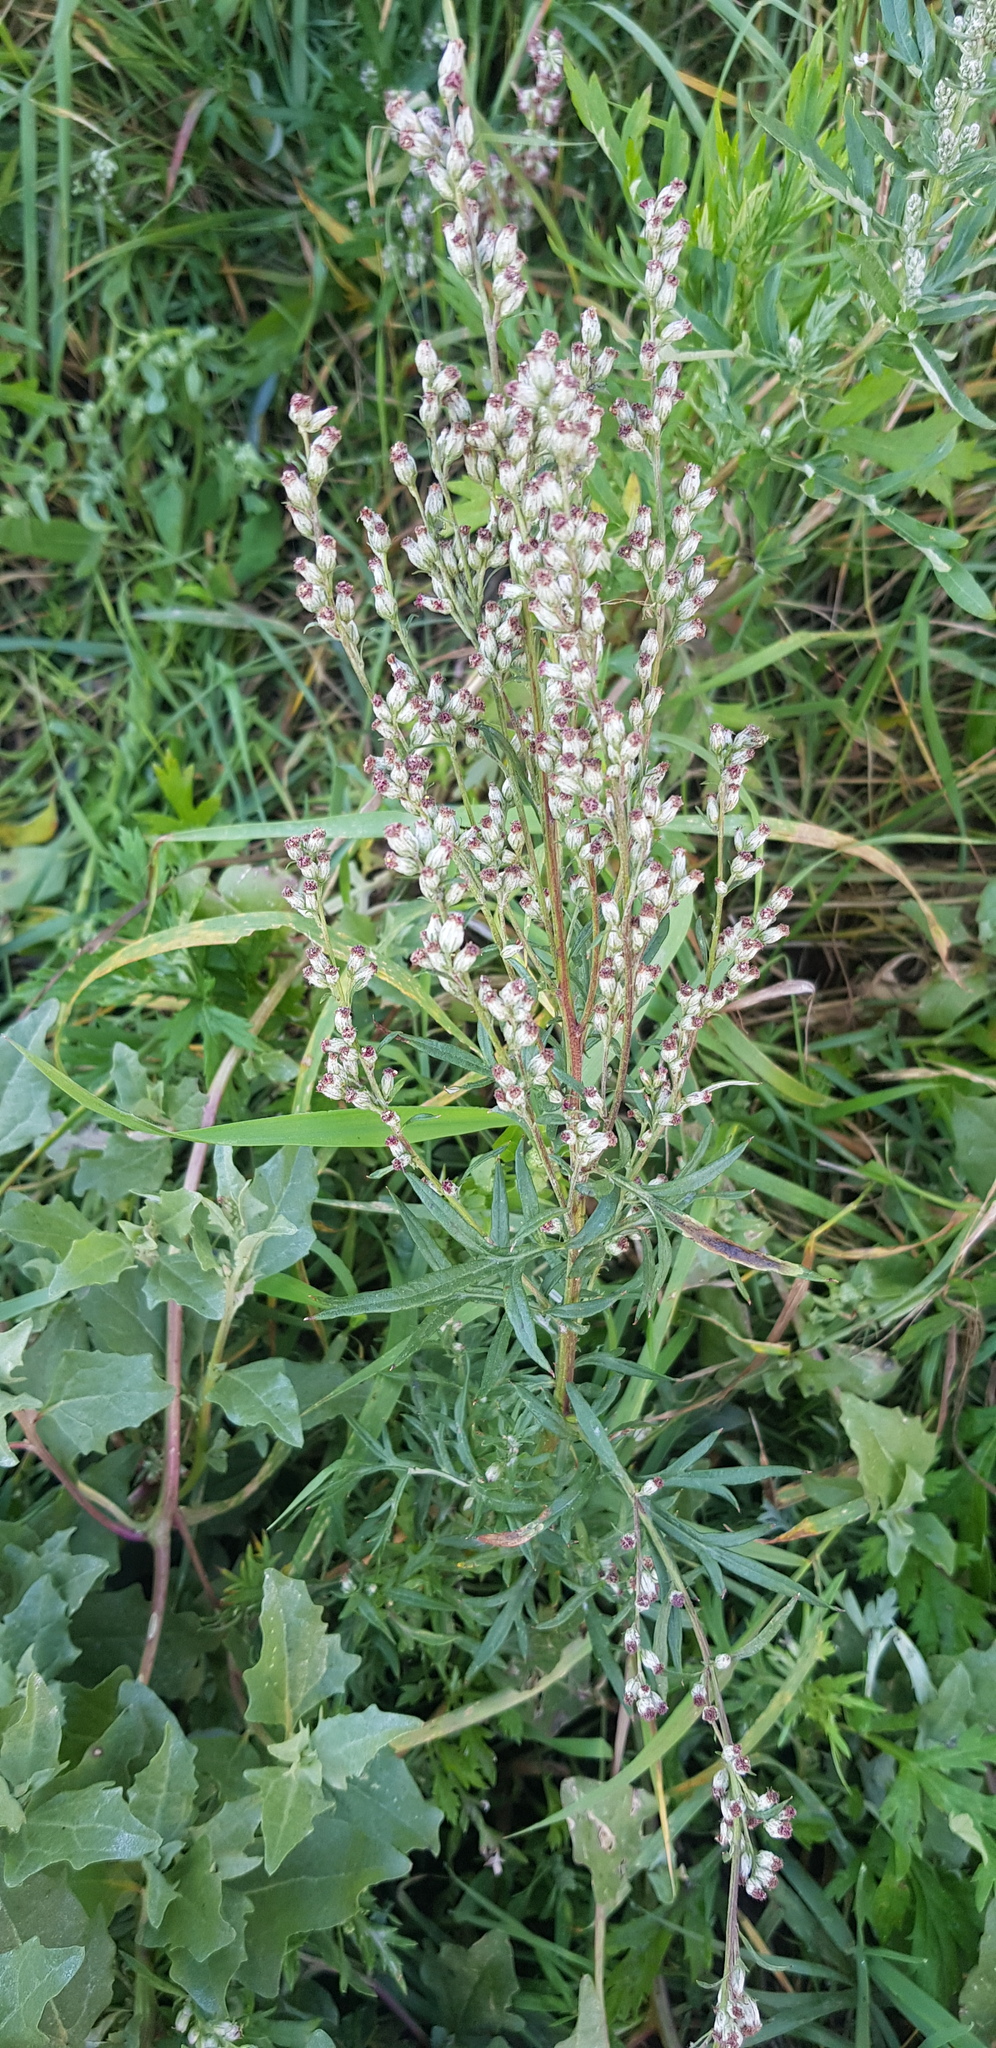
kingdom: Plantae
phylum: Tracheophyta
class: Magnoliopsida
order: Asterales
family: Asteraceae
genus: Artemisia
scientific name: Artemisia vulgaris
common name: Mugwort
